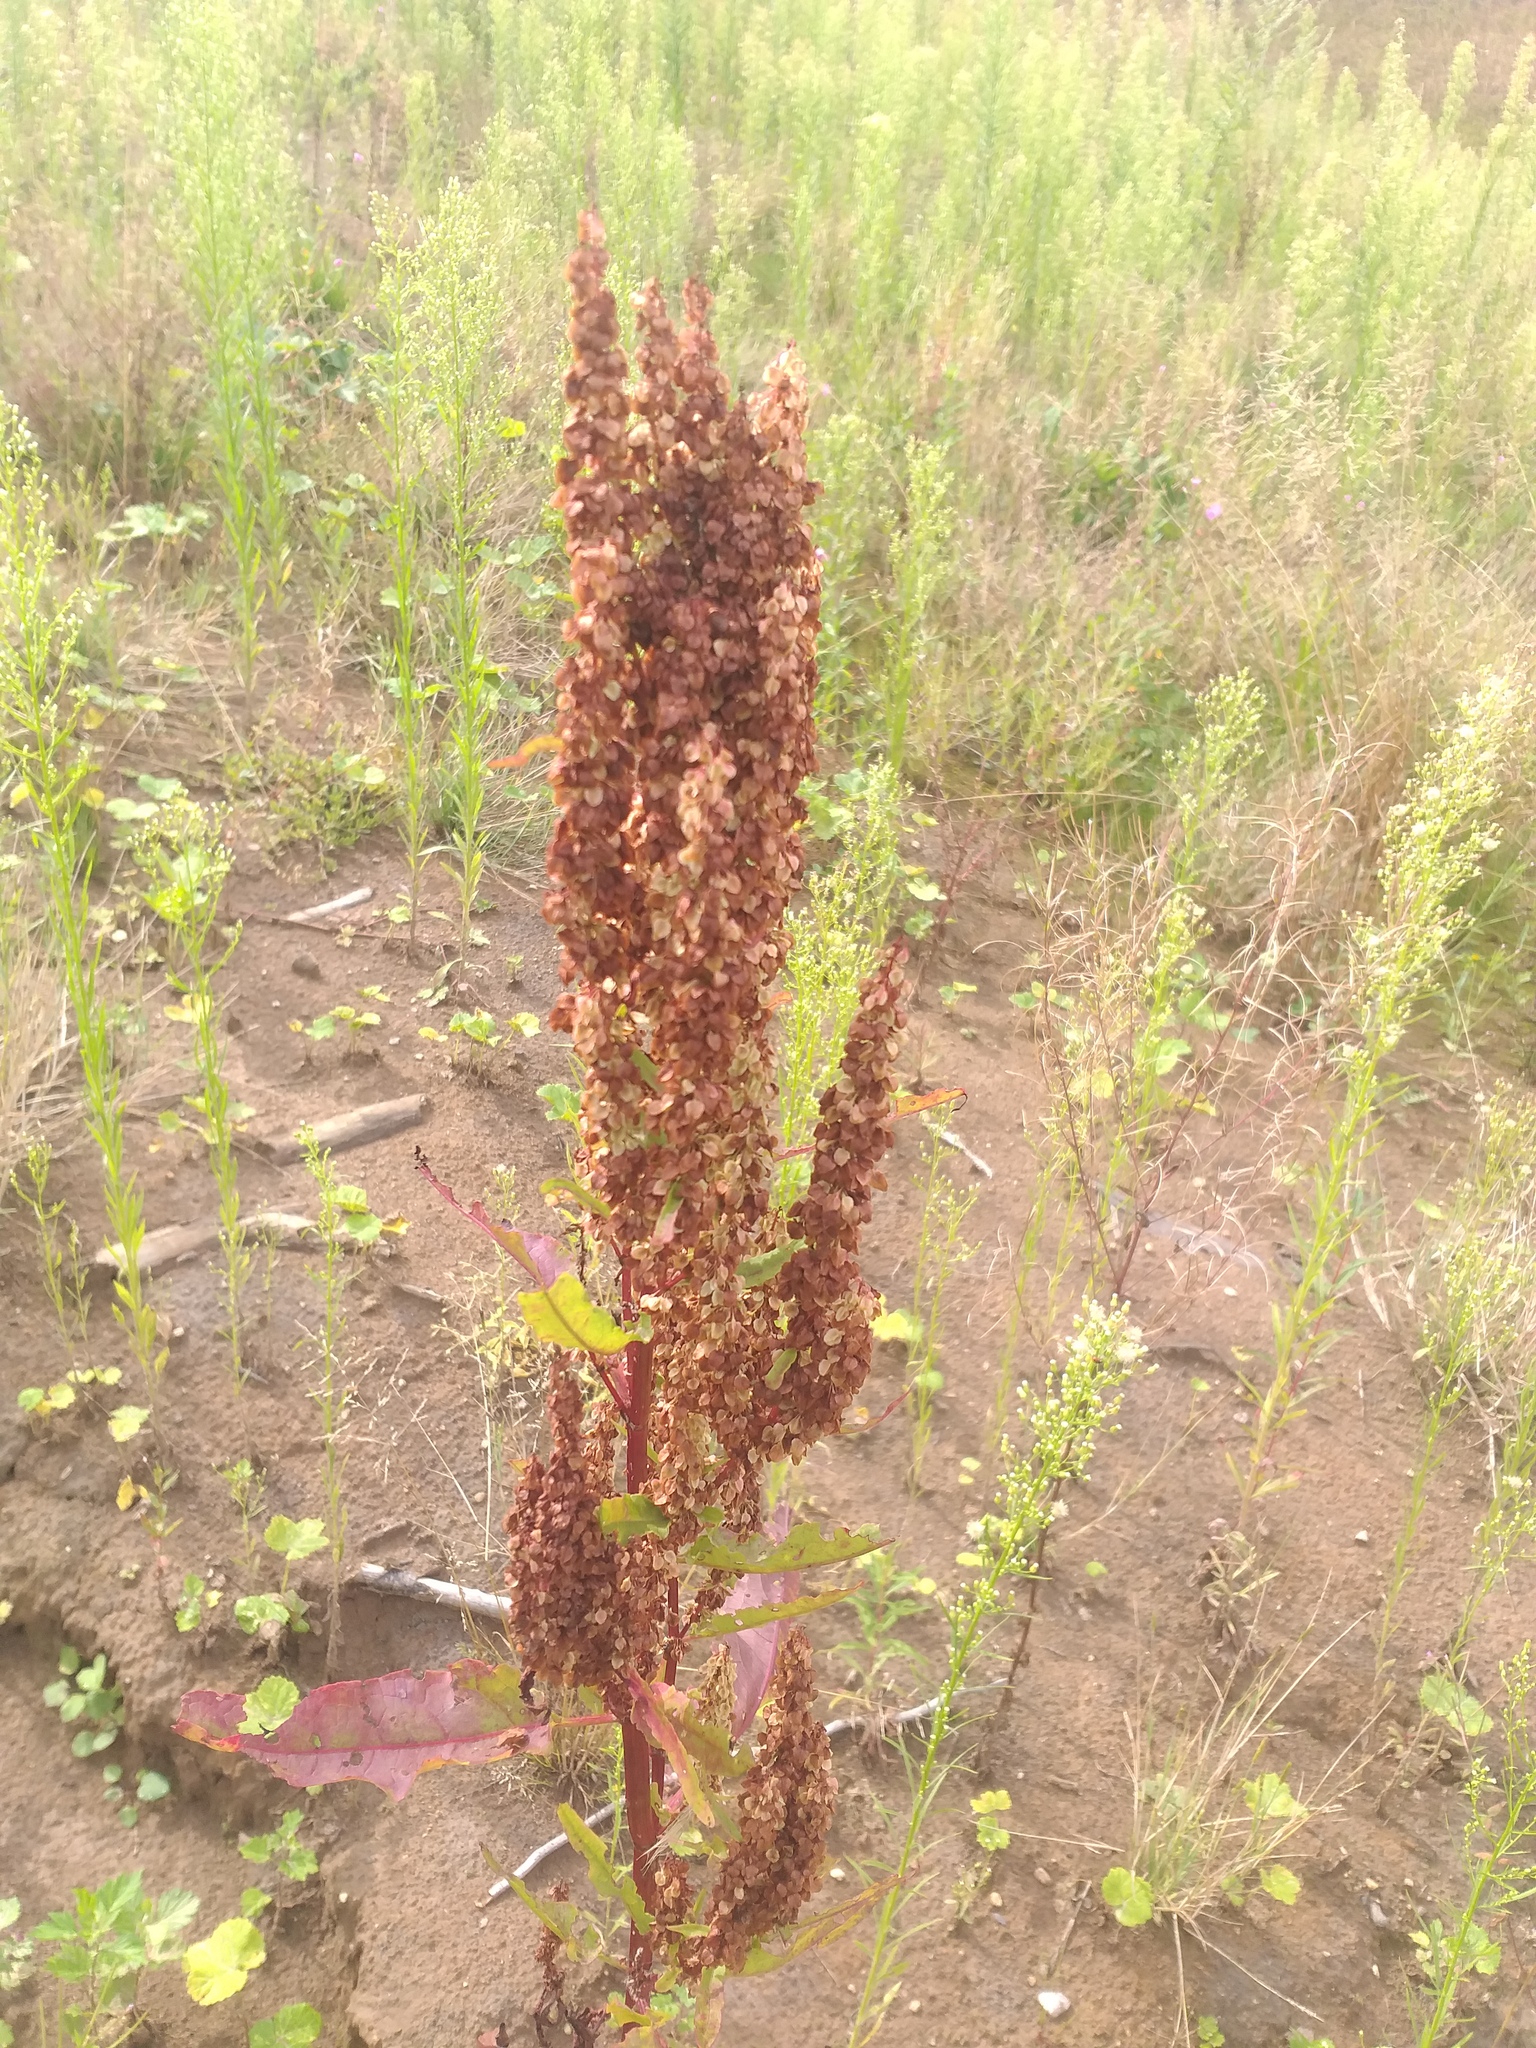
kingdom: Plantae
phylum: Tracheophyta
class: Magnoliopsida
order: Caryophyllales
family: Polygonaceae
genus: Rumex
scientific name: Rumex aquaticus
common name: Scottish dock
